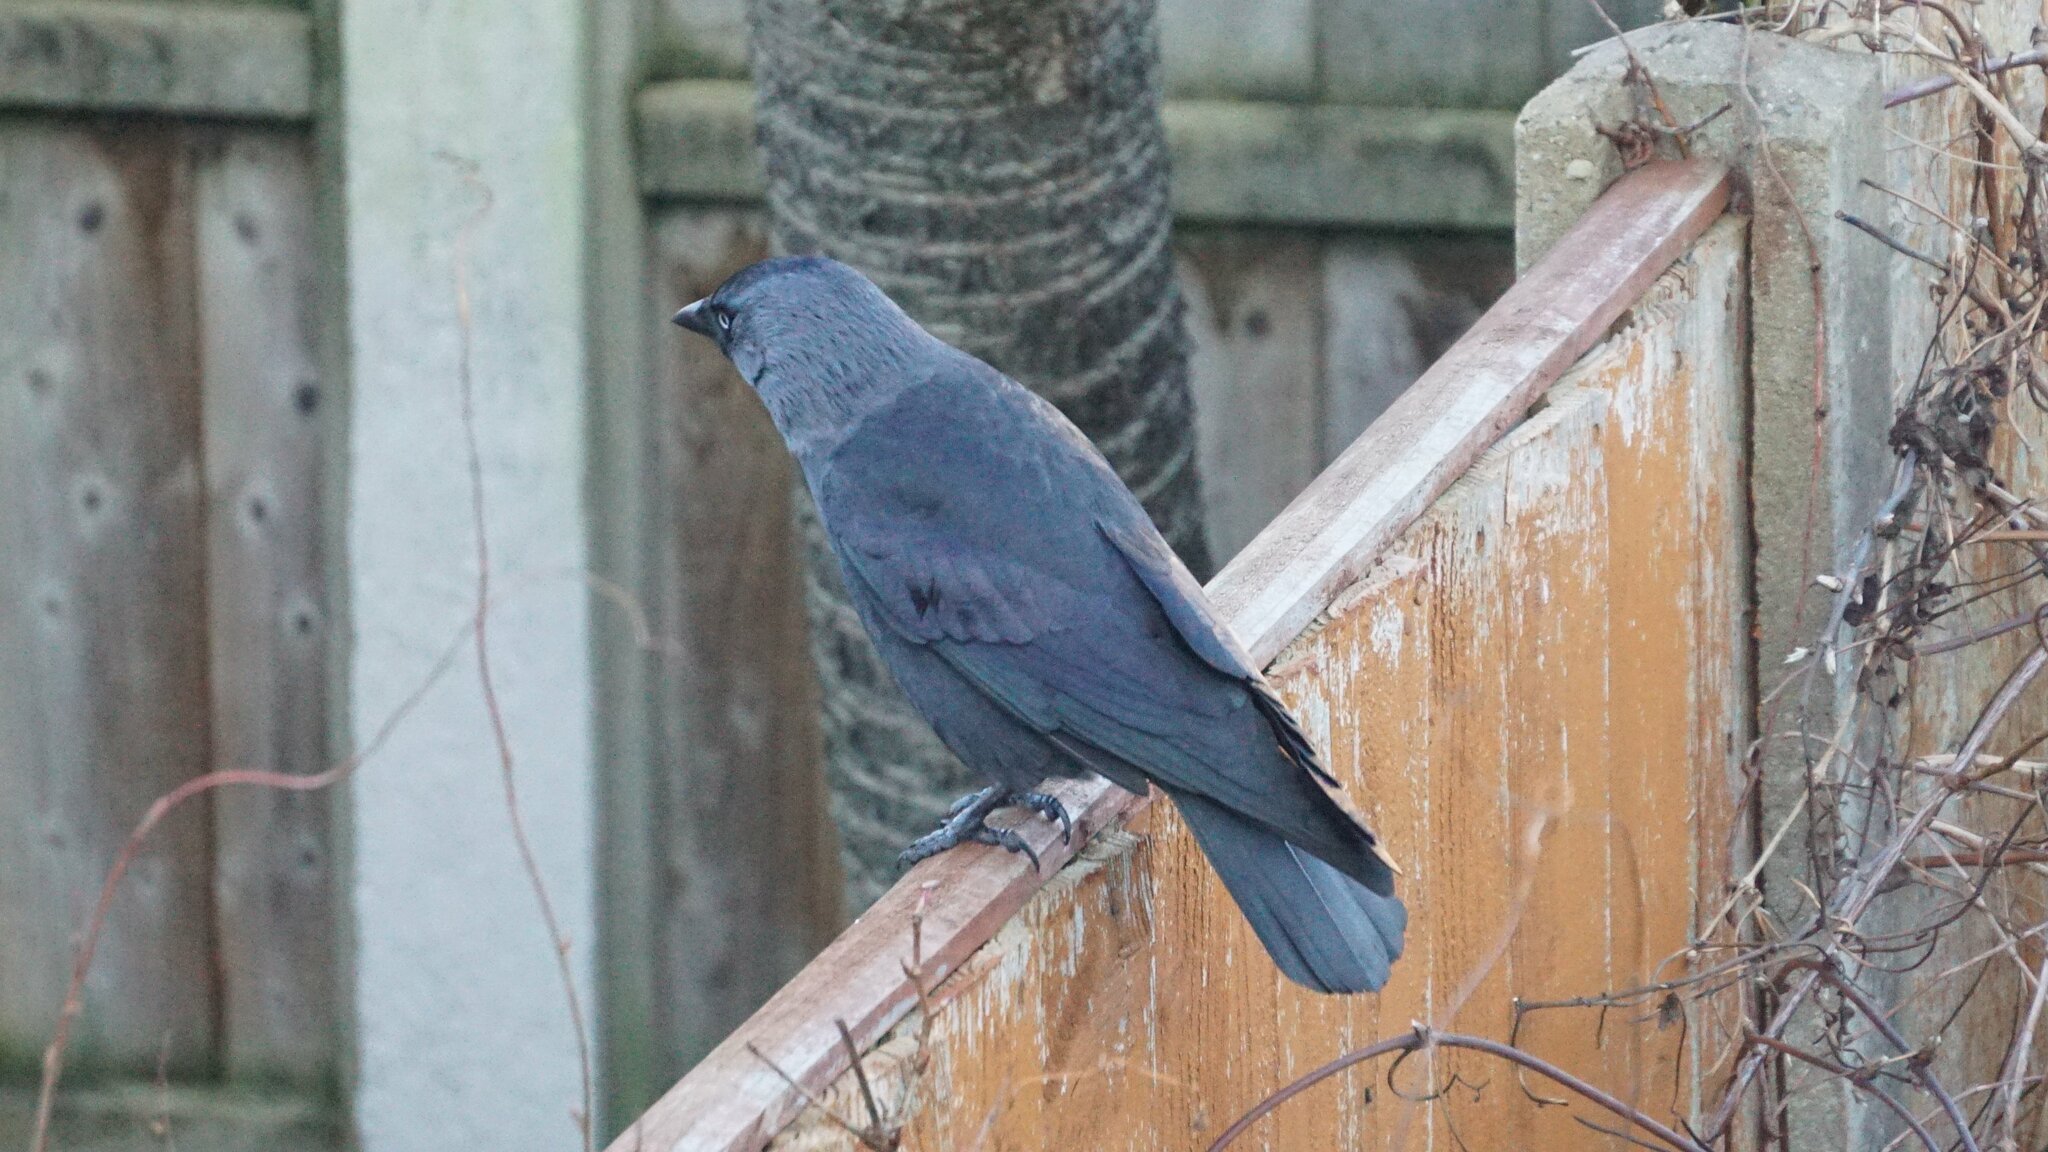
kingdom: Animalia
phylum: Chordata
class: Aves
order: Passeriformes
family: Corvidae
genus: Coloeus
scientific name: Coloeus monedula
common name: Western jackdaw
